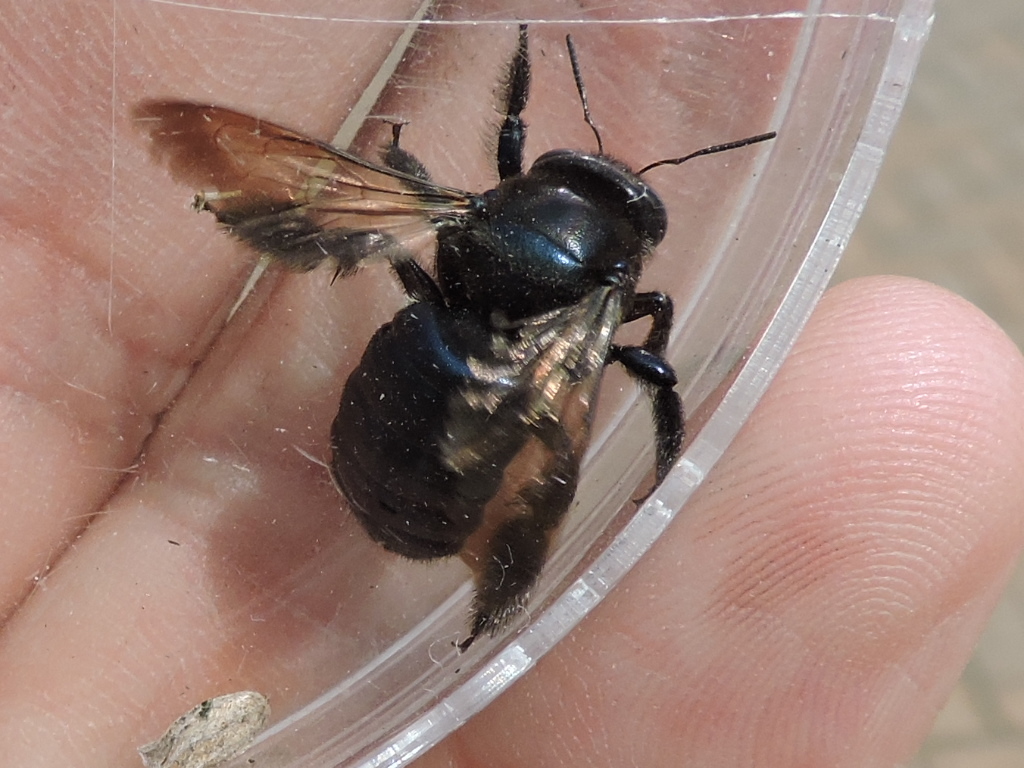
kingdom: Animalia
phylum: Arthropoda
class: Insecta
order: Hymenoptera
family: Apidae
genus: Xylocopa
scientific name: Xylocopa micans
